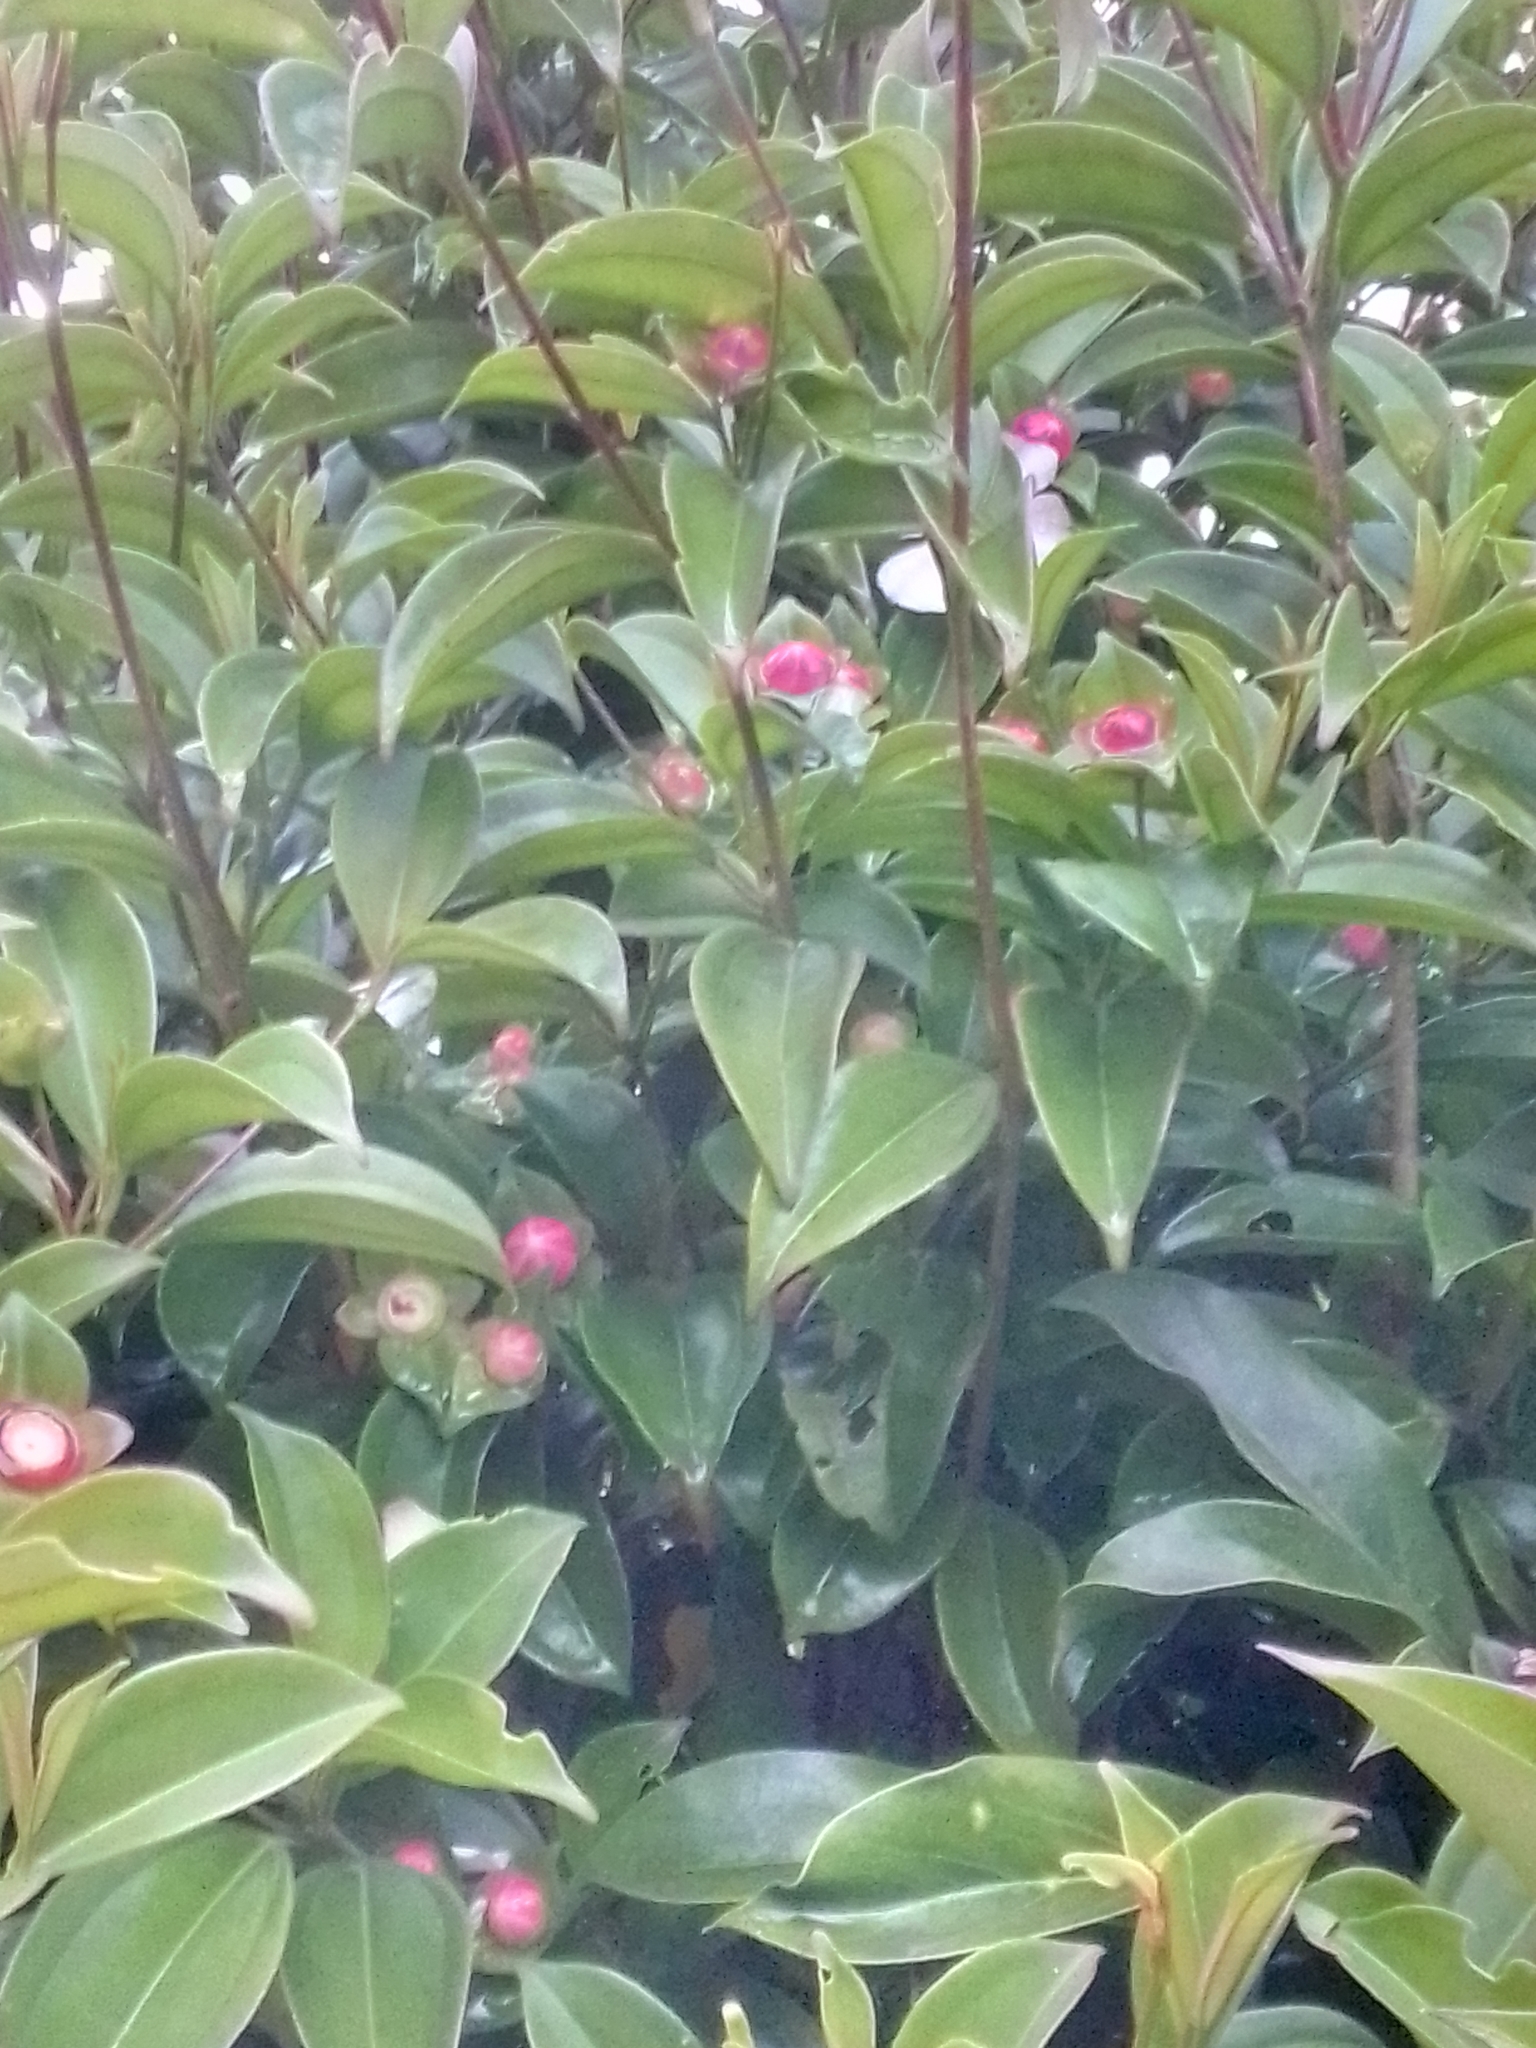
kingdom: Plantae
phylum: Tracheophyta
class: Magnoliopsida
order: Myrtales
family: Melastomataceae
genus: Blakea
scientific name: Blakea gracilis
